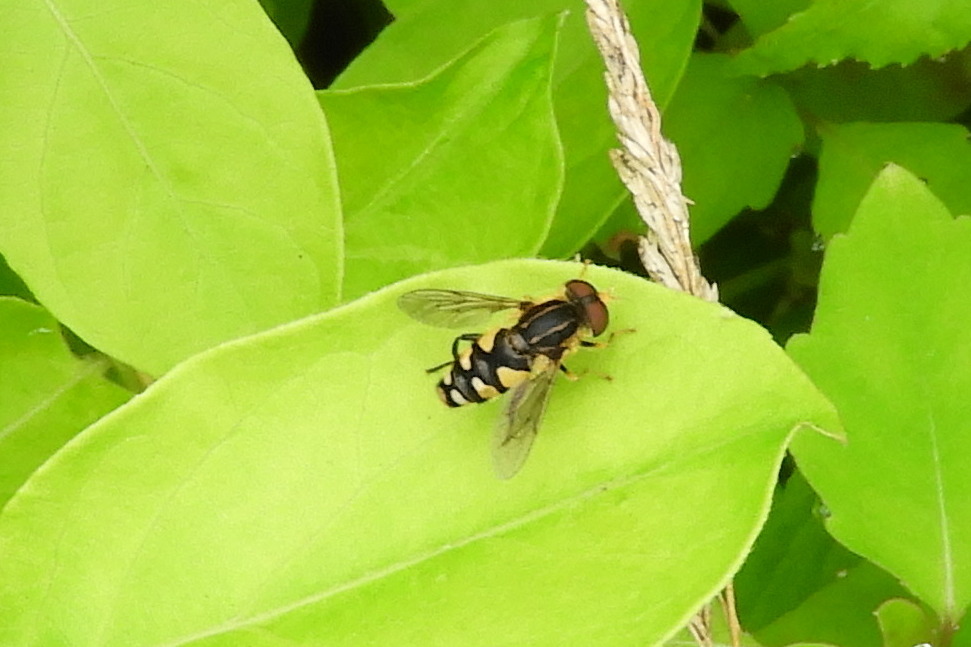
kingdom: Animalia
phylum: Arthropoda
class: Insecta
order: Diptera
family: Syrphidae
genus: Parhelophilus
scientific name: Parhelophilus flavifacies
